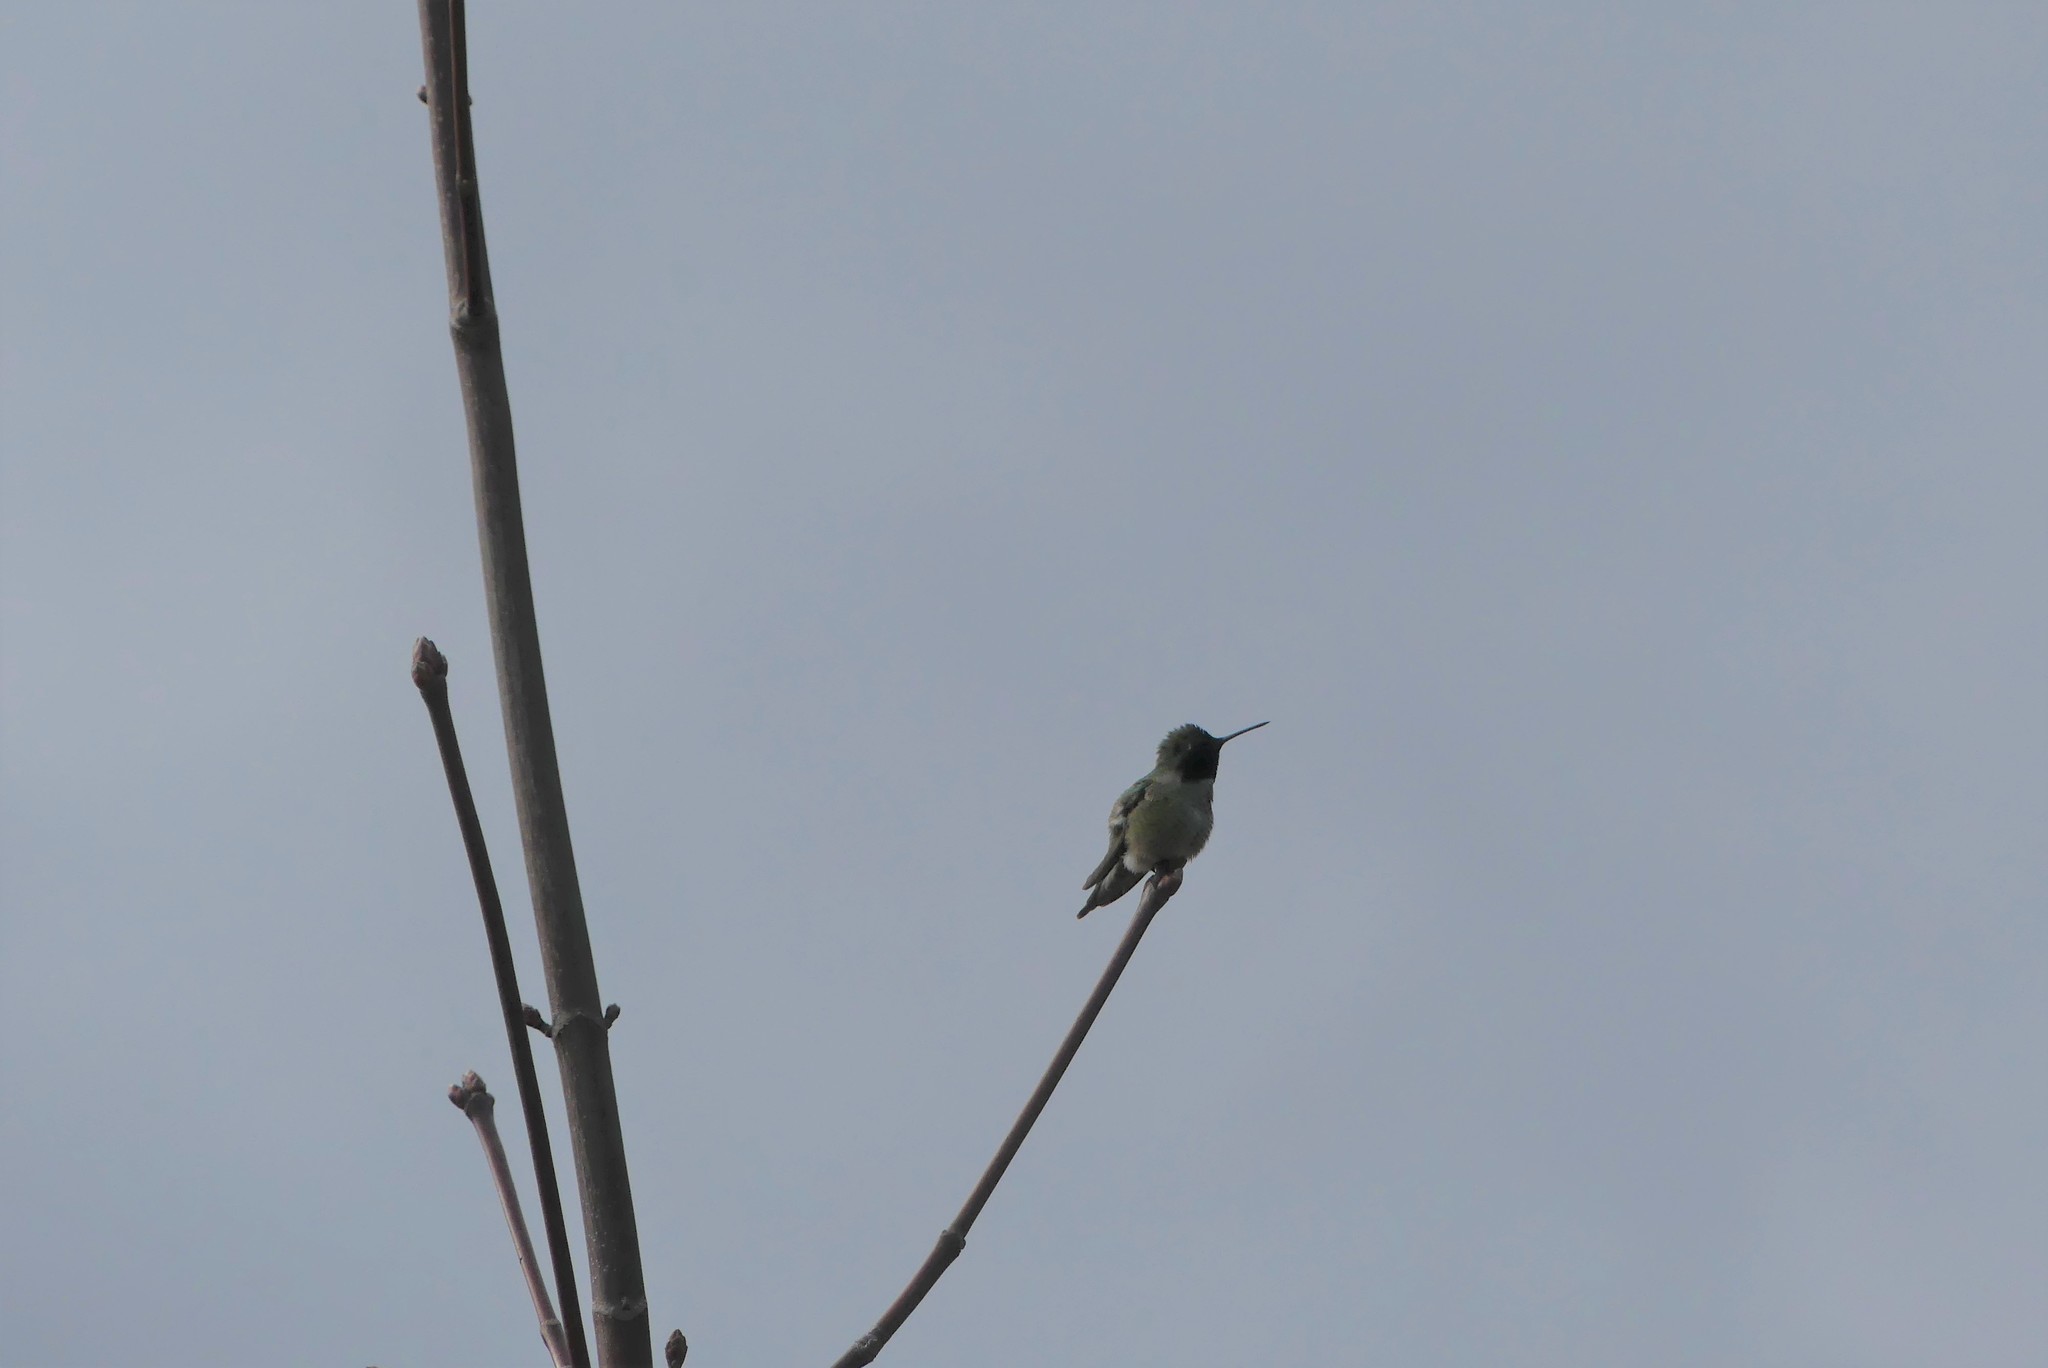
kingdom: Animalia
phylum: Chordata
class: Aves
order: Apodiformes
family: Trochilidae
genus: Calypte
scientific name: Calypte anna
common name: Anna's hummingbird
